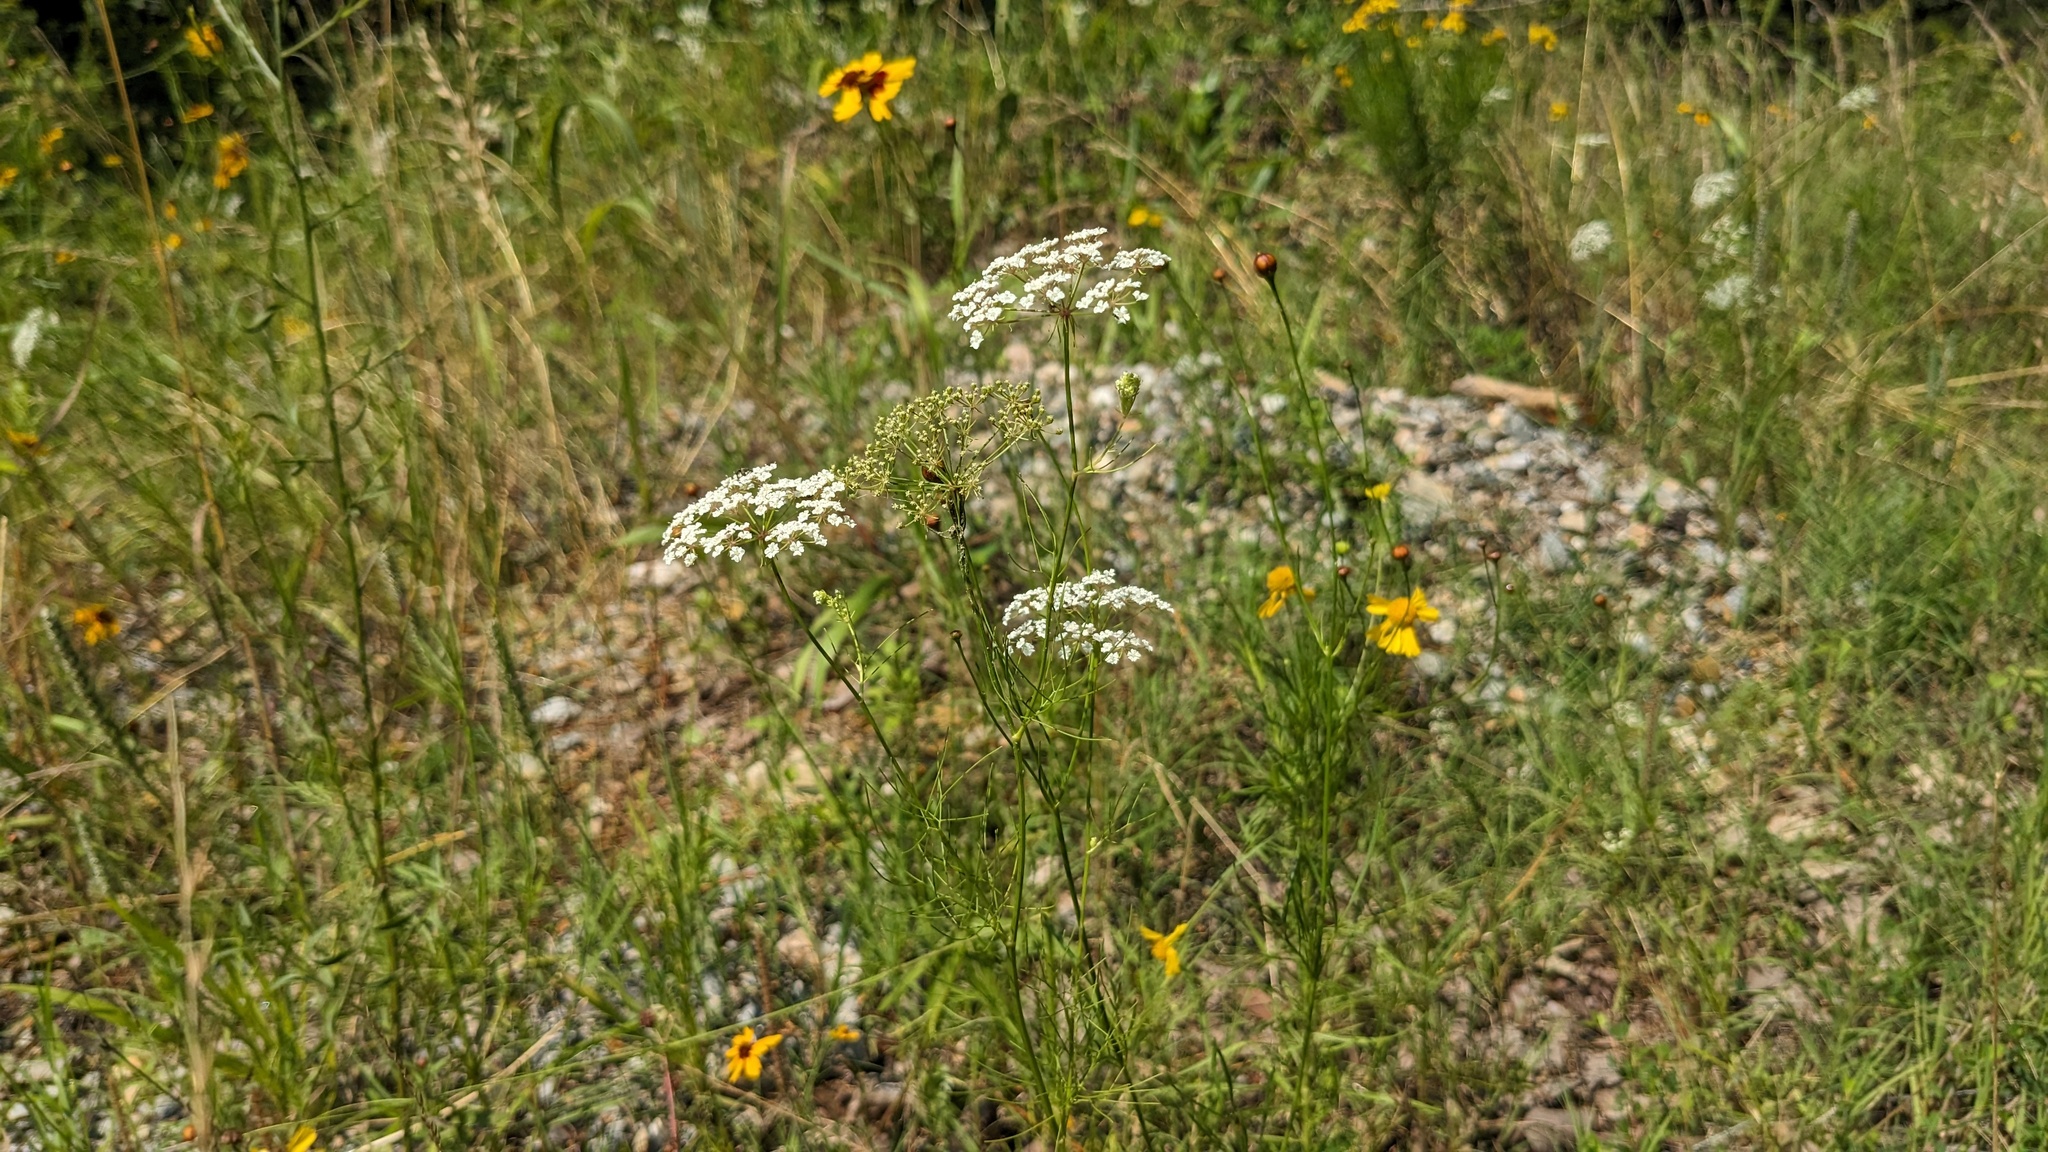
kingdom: Plantae
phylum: Tracheophyta
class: Magnoliopsida
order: Apiales
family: Apiaceae
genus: Ptilimnium
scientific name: Ptilimnium nuttallii
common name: Ozark bishop's-weed
